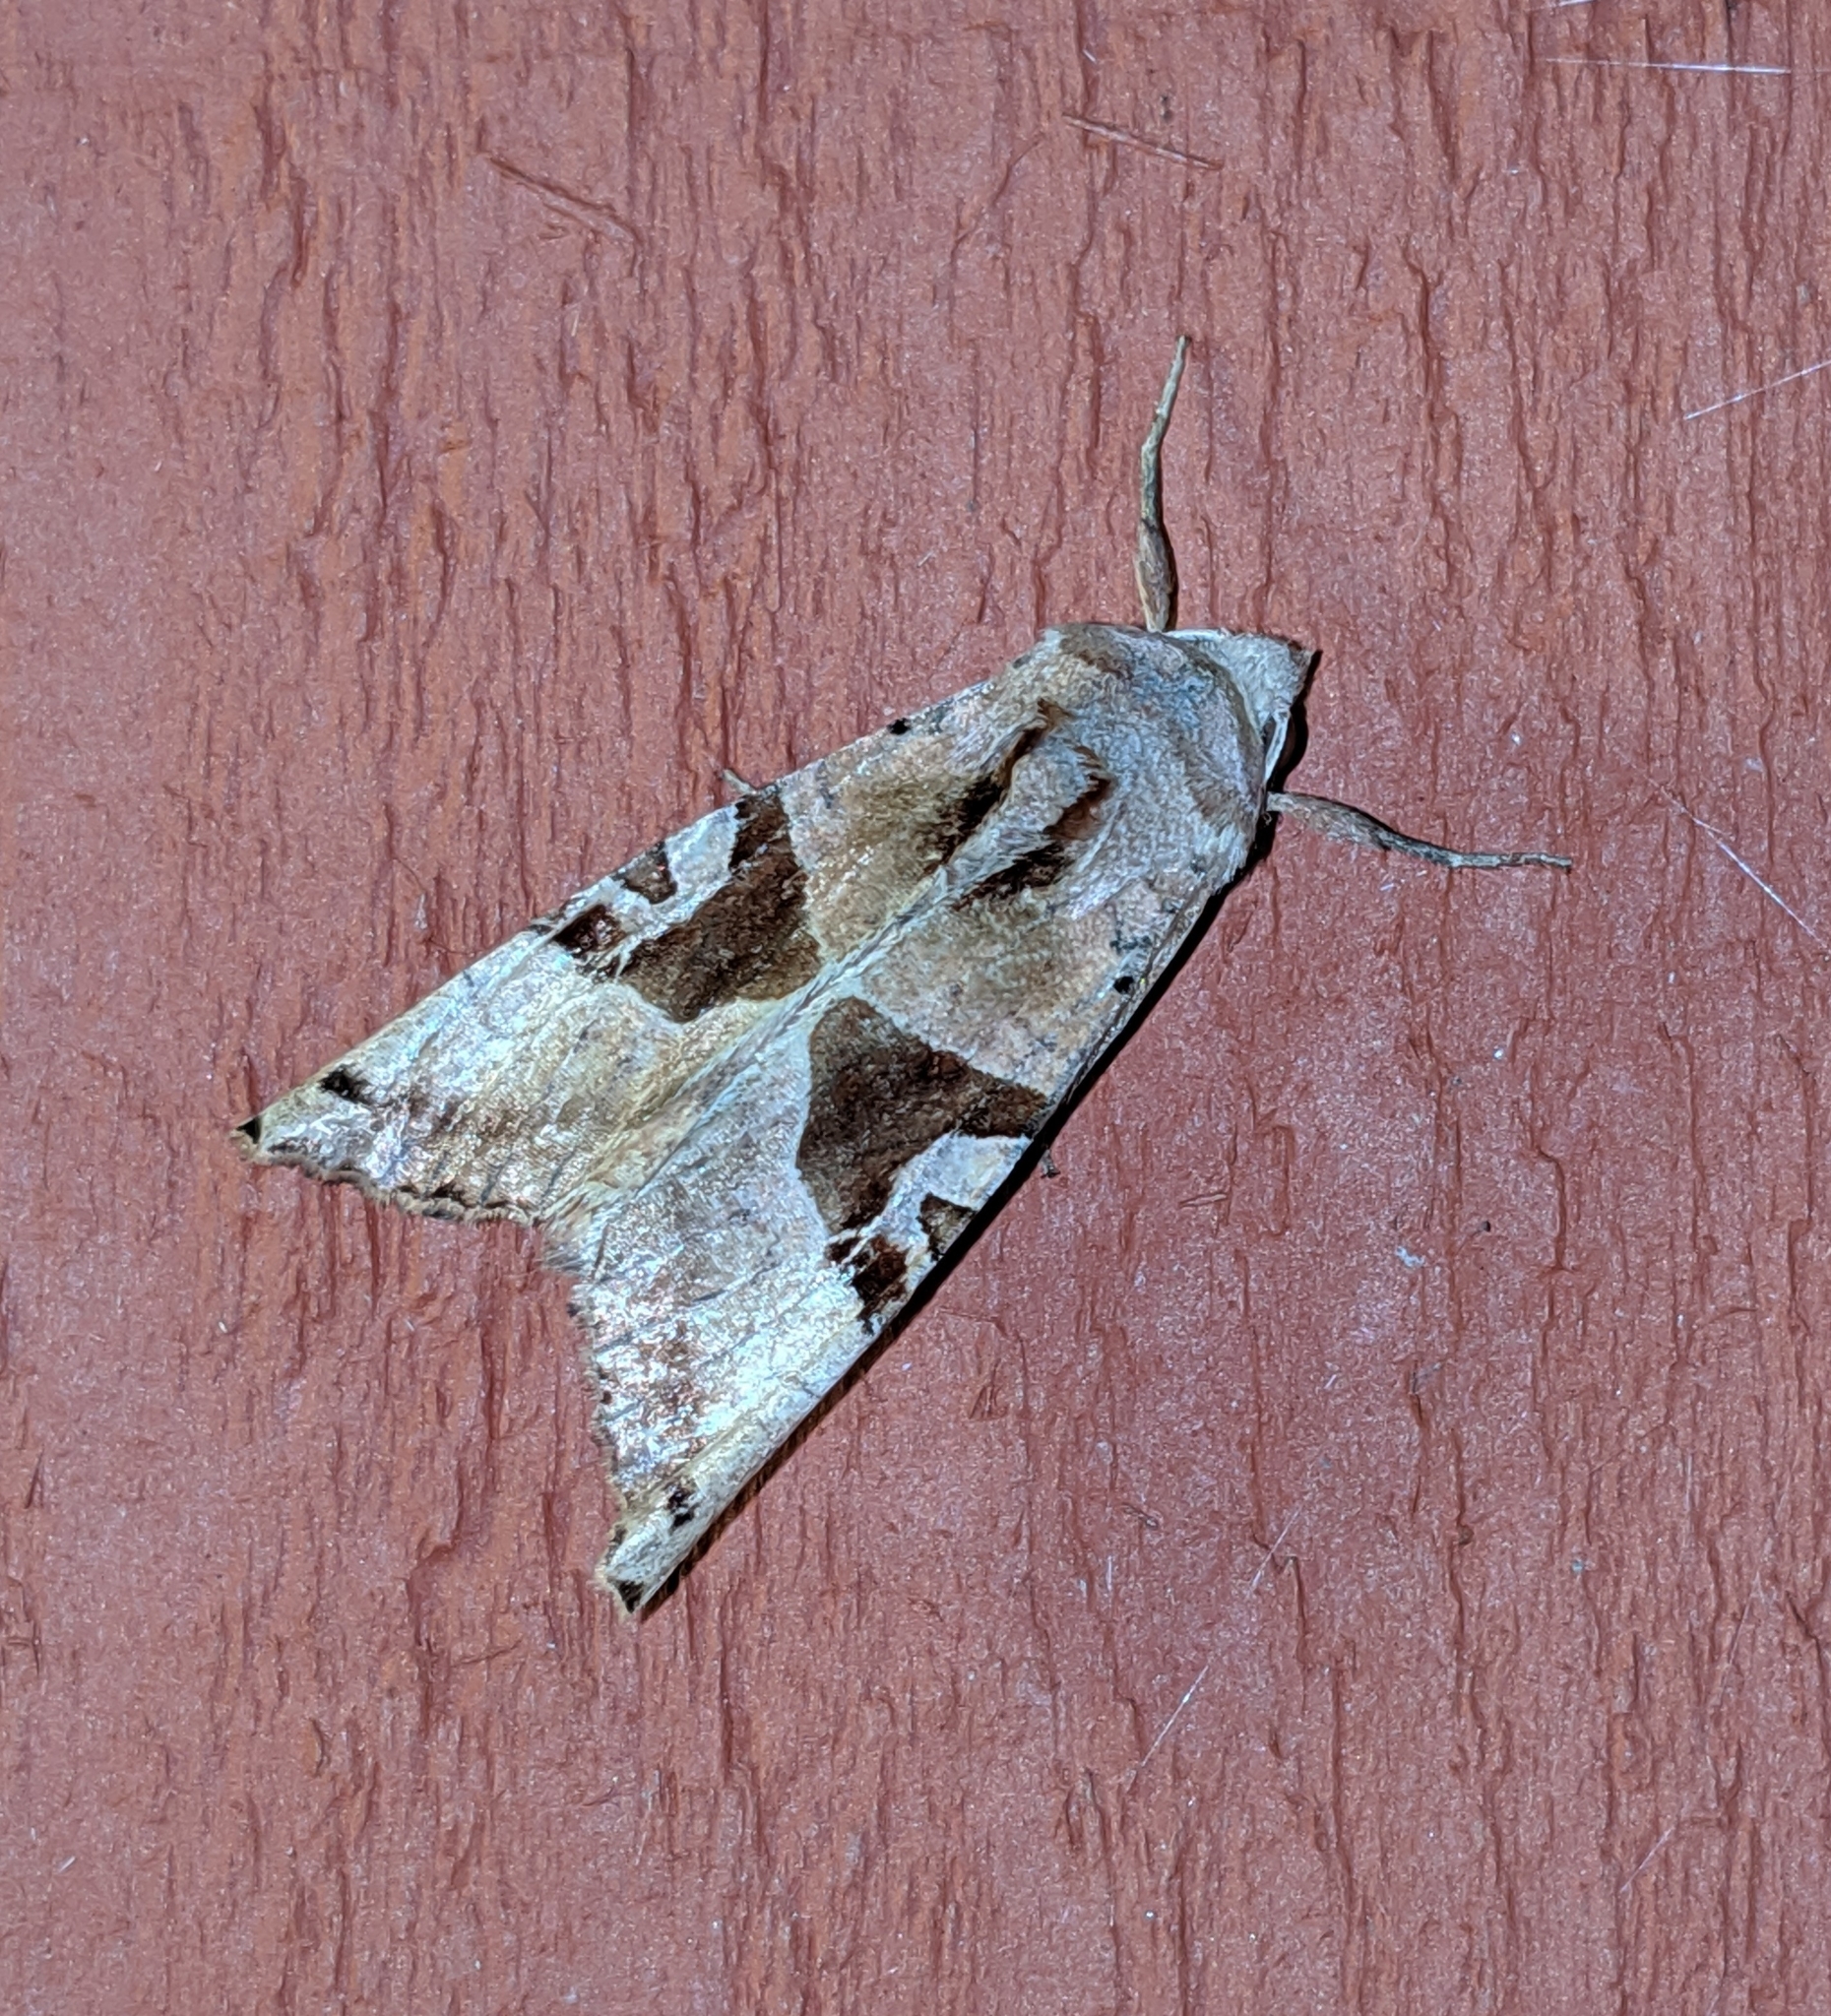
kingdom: Animalia
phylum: Arthropoda
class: Insecta
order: Lepidoptera
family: Noctuidae
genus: Phlogophora
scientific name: Phlogophora periculosa
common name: Brown angle shades
